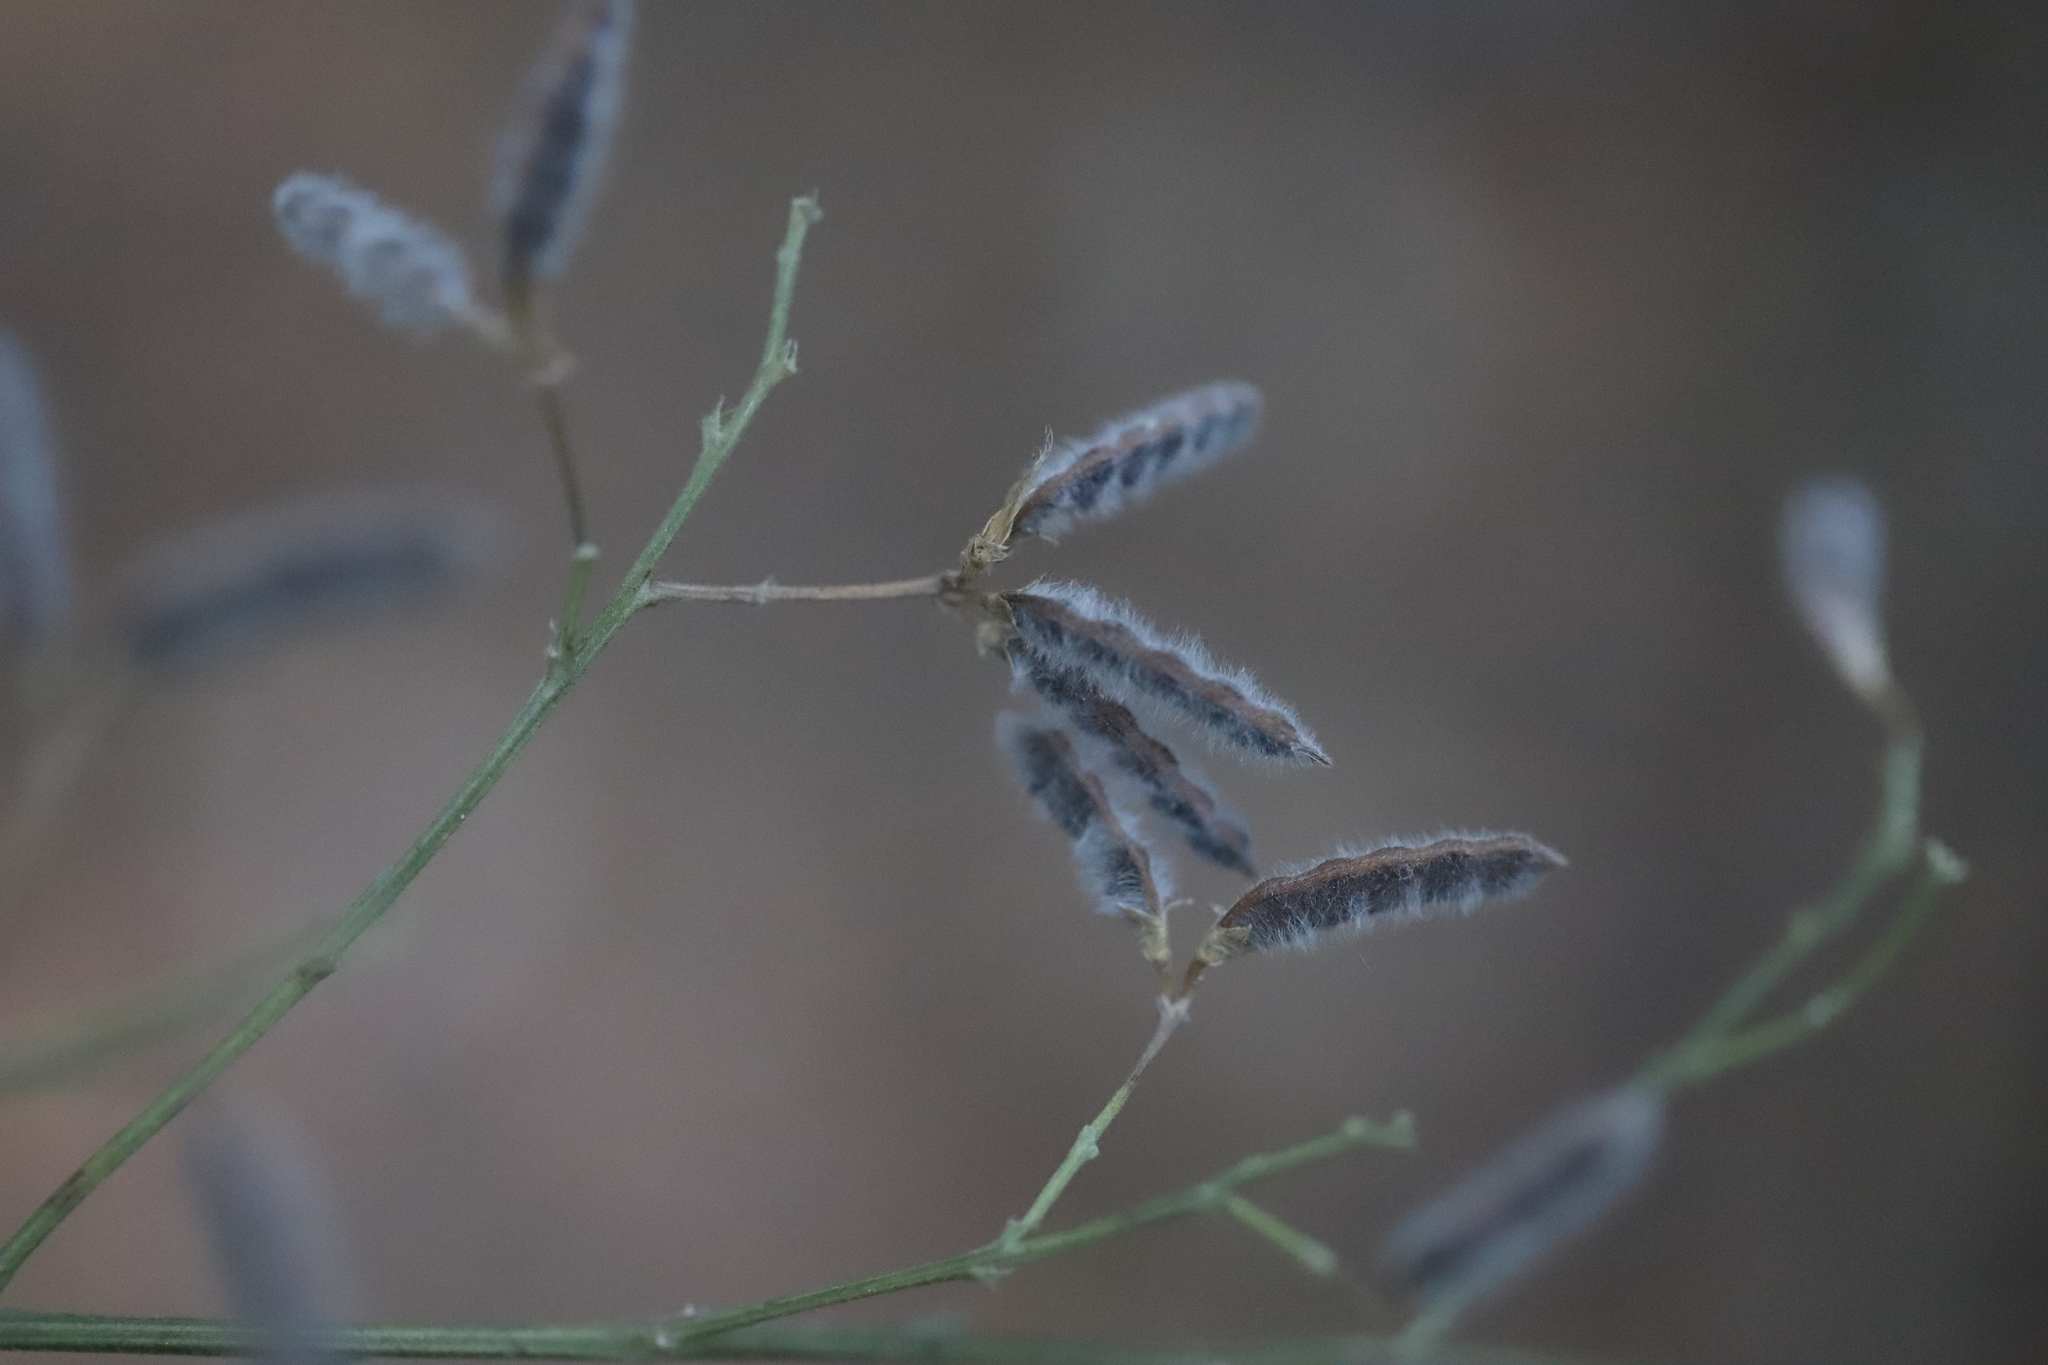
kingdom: Plantae
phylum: Tracheophyta
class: Magnoliopsida
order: Fabales
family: Fabaceae
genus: Genista
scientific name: Genista monspessulana
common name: Montpellier broom
